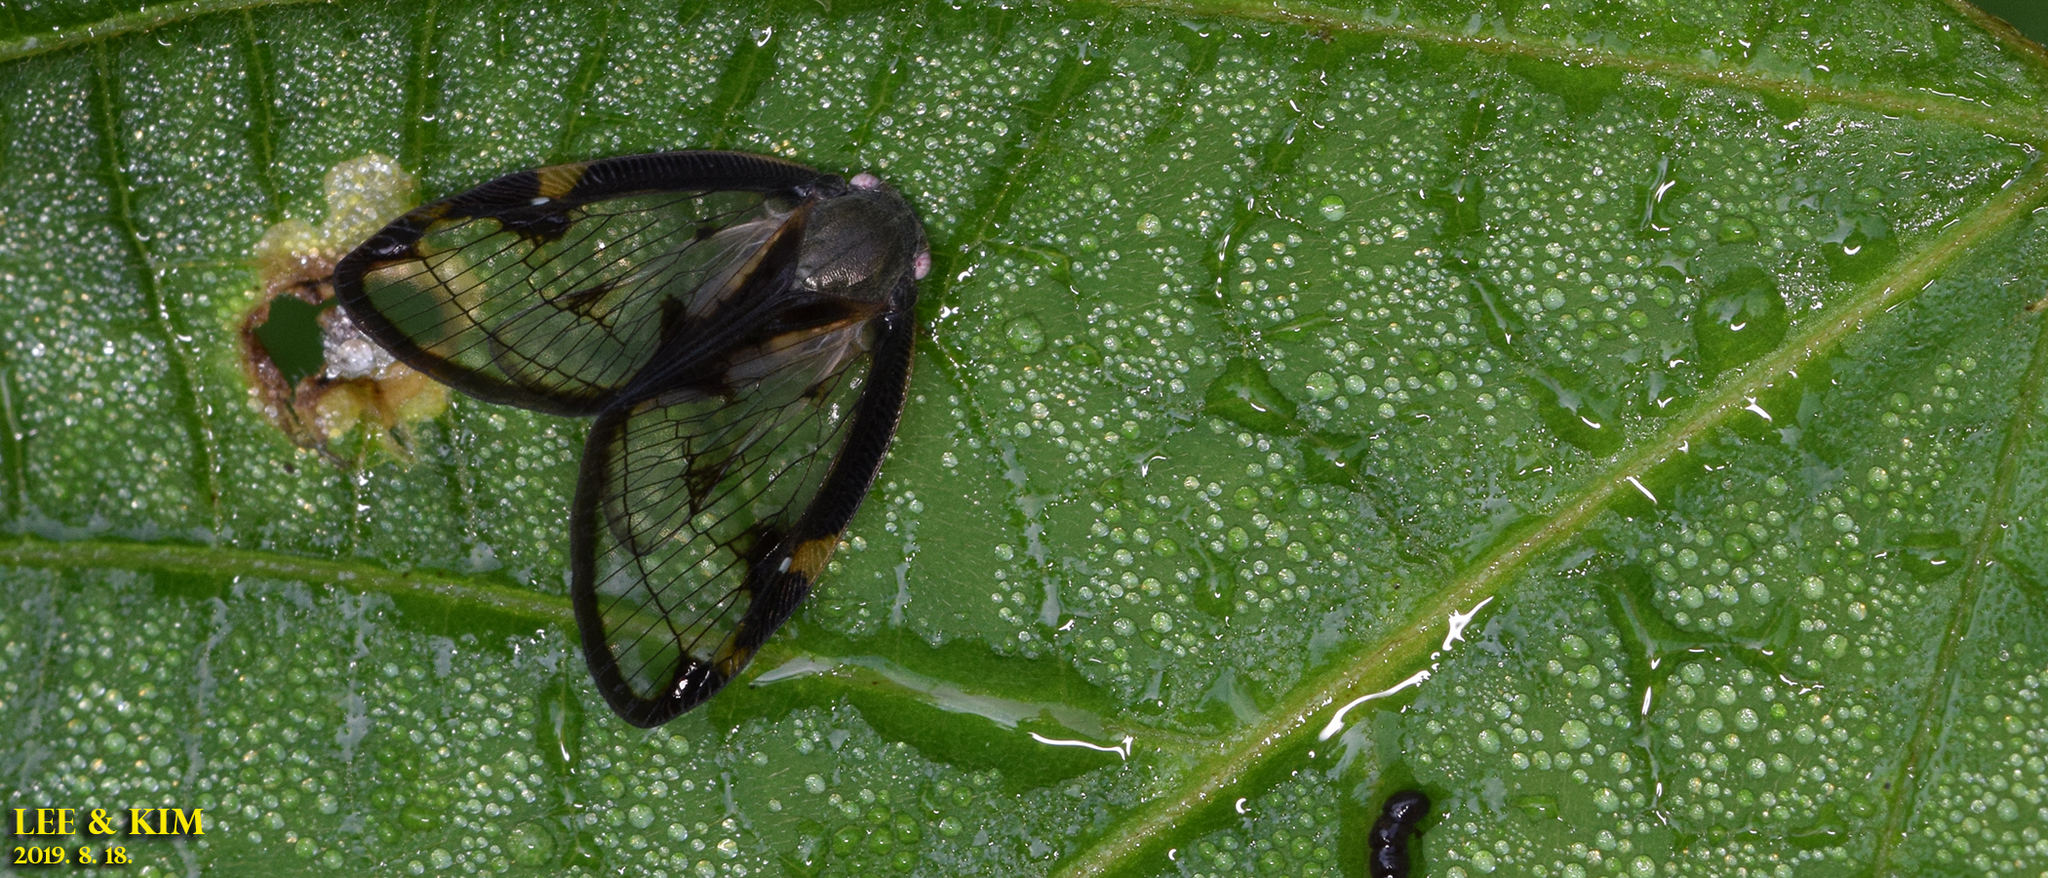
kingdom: Animalia
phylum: Arthropoda
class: Insecta
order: Hemiptera
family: Ricaniidae
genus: Euricania
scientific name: Euricania facialis
